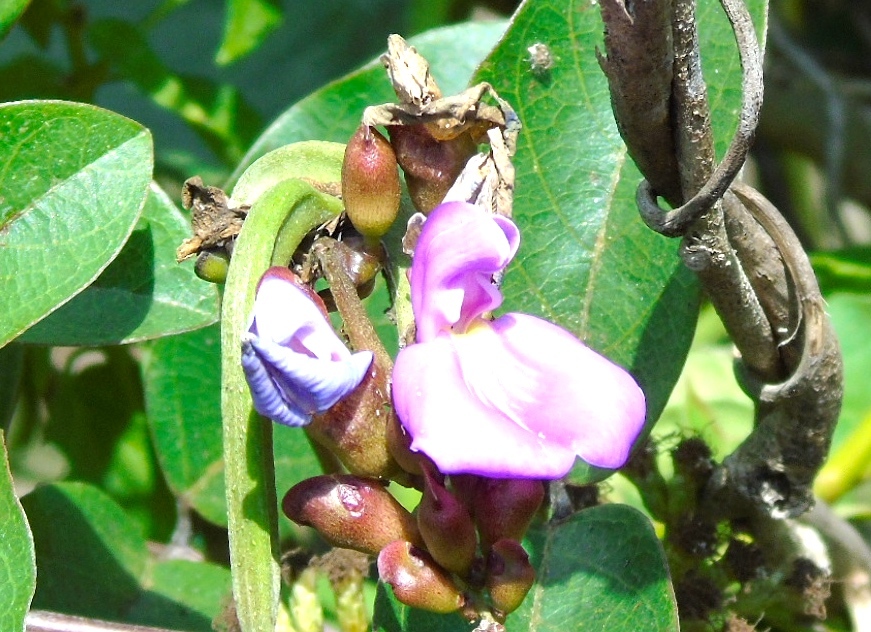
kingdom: Plantae
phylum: Tracheophyta
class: Magnoliopsida
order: Fabales
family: Fabaceae
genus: Canavalia
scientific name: Canavalia rosea
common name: Beach-bean
